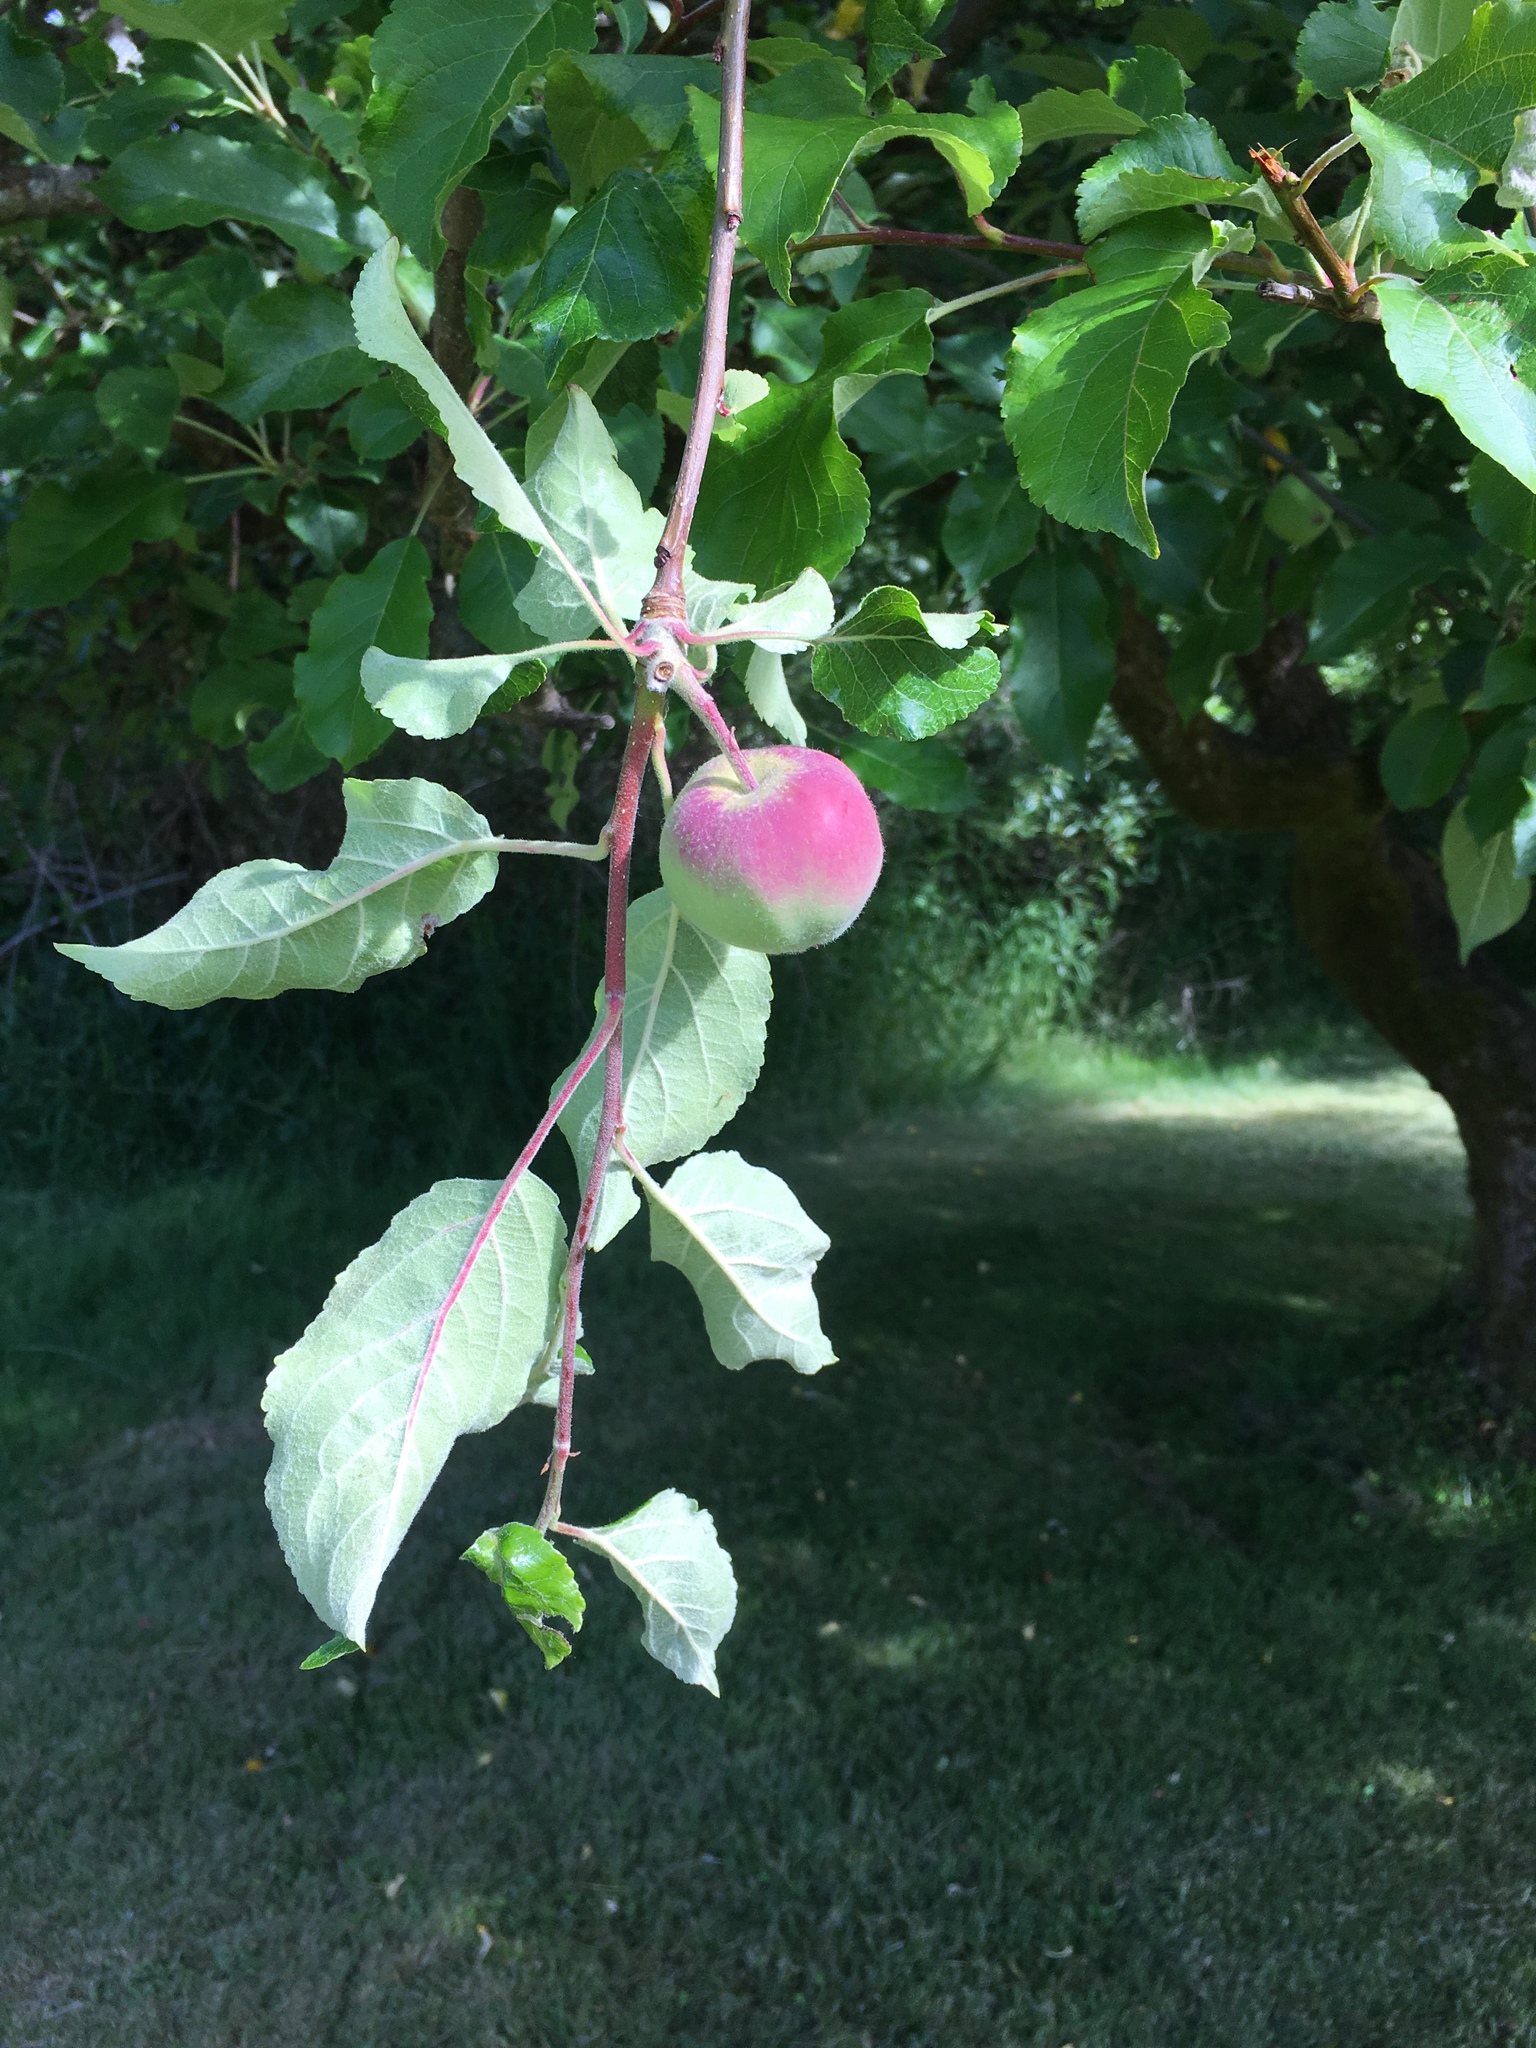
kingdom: Plantae
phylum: Tracheophyta
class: Magnoliopsida
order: Rosales
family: Rosaceae
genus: Malus
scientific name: Malus domestica
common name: Apple
